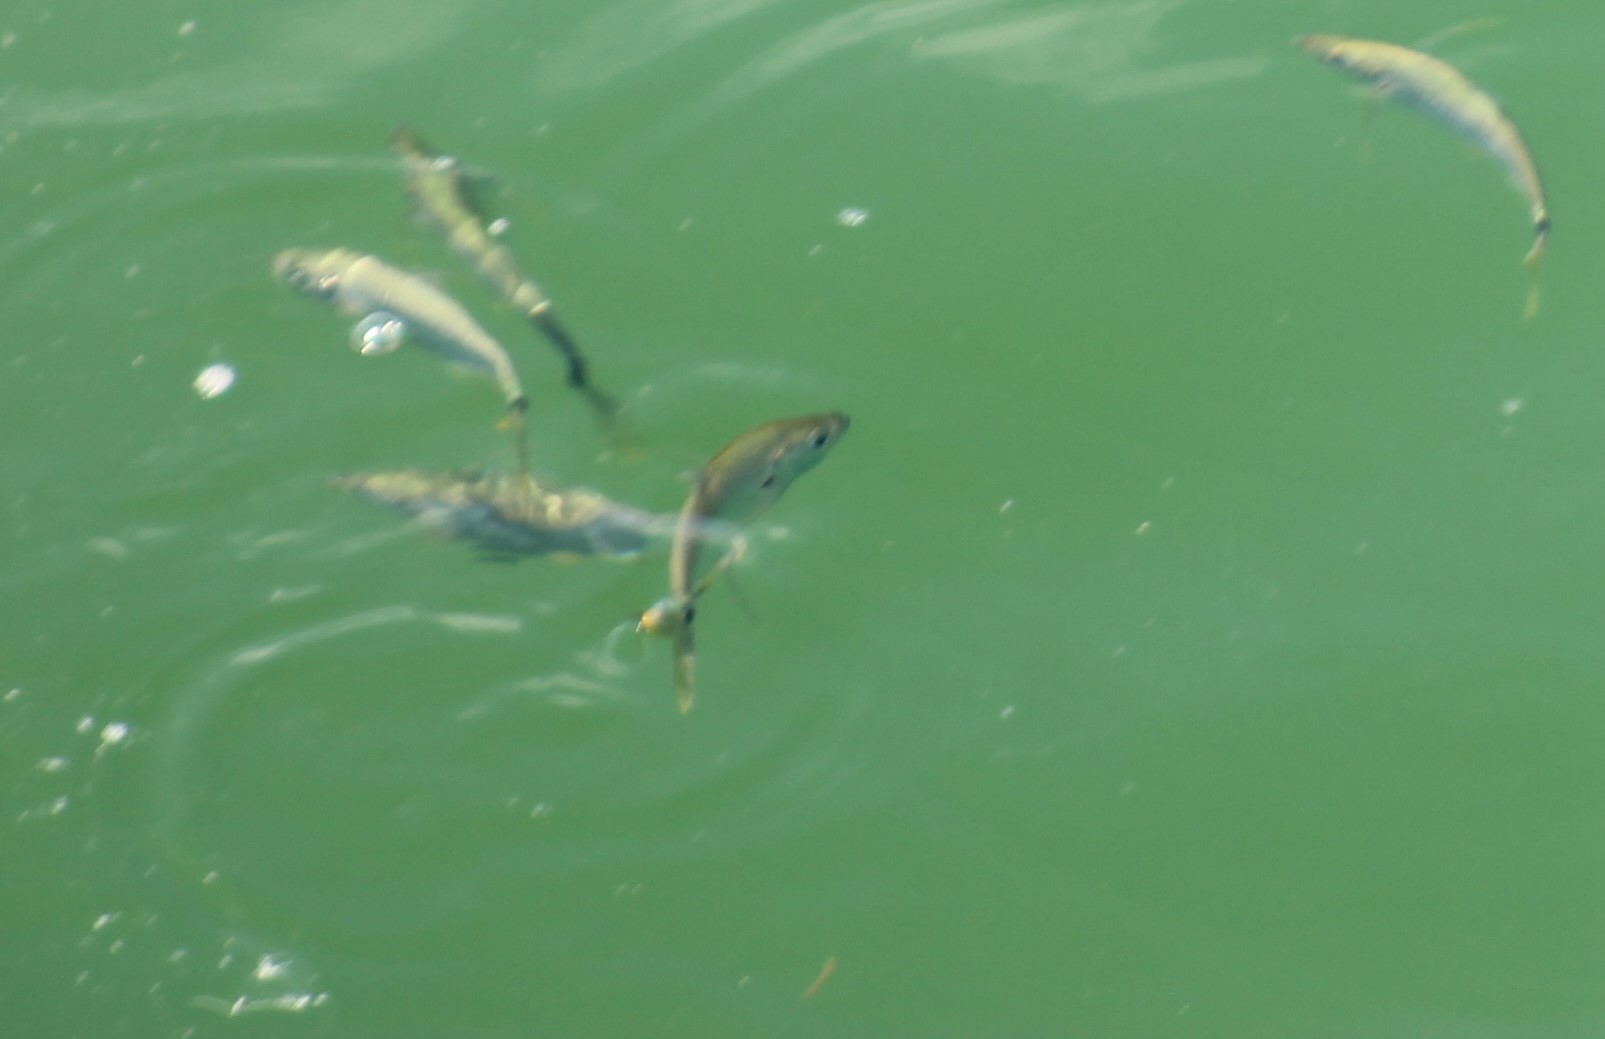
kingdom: Animalia
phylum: Chordata
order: Perciformes
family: Carangidae
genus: Chloroscombrus
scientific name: Chloroscombrus chrysurus
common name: Bumper
